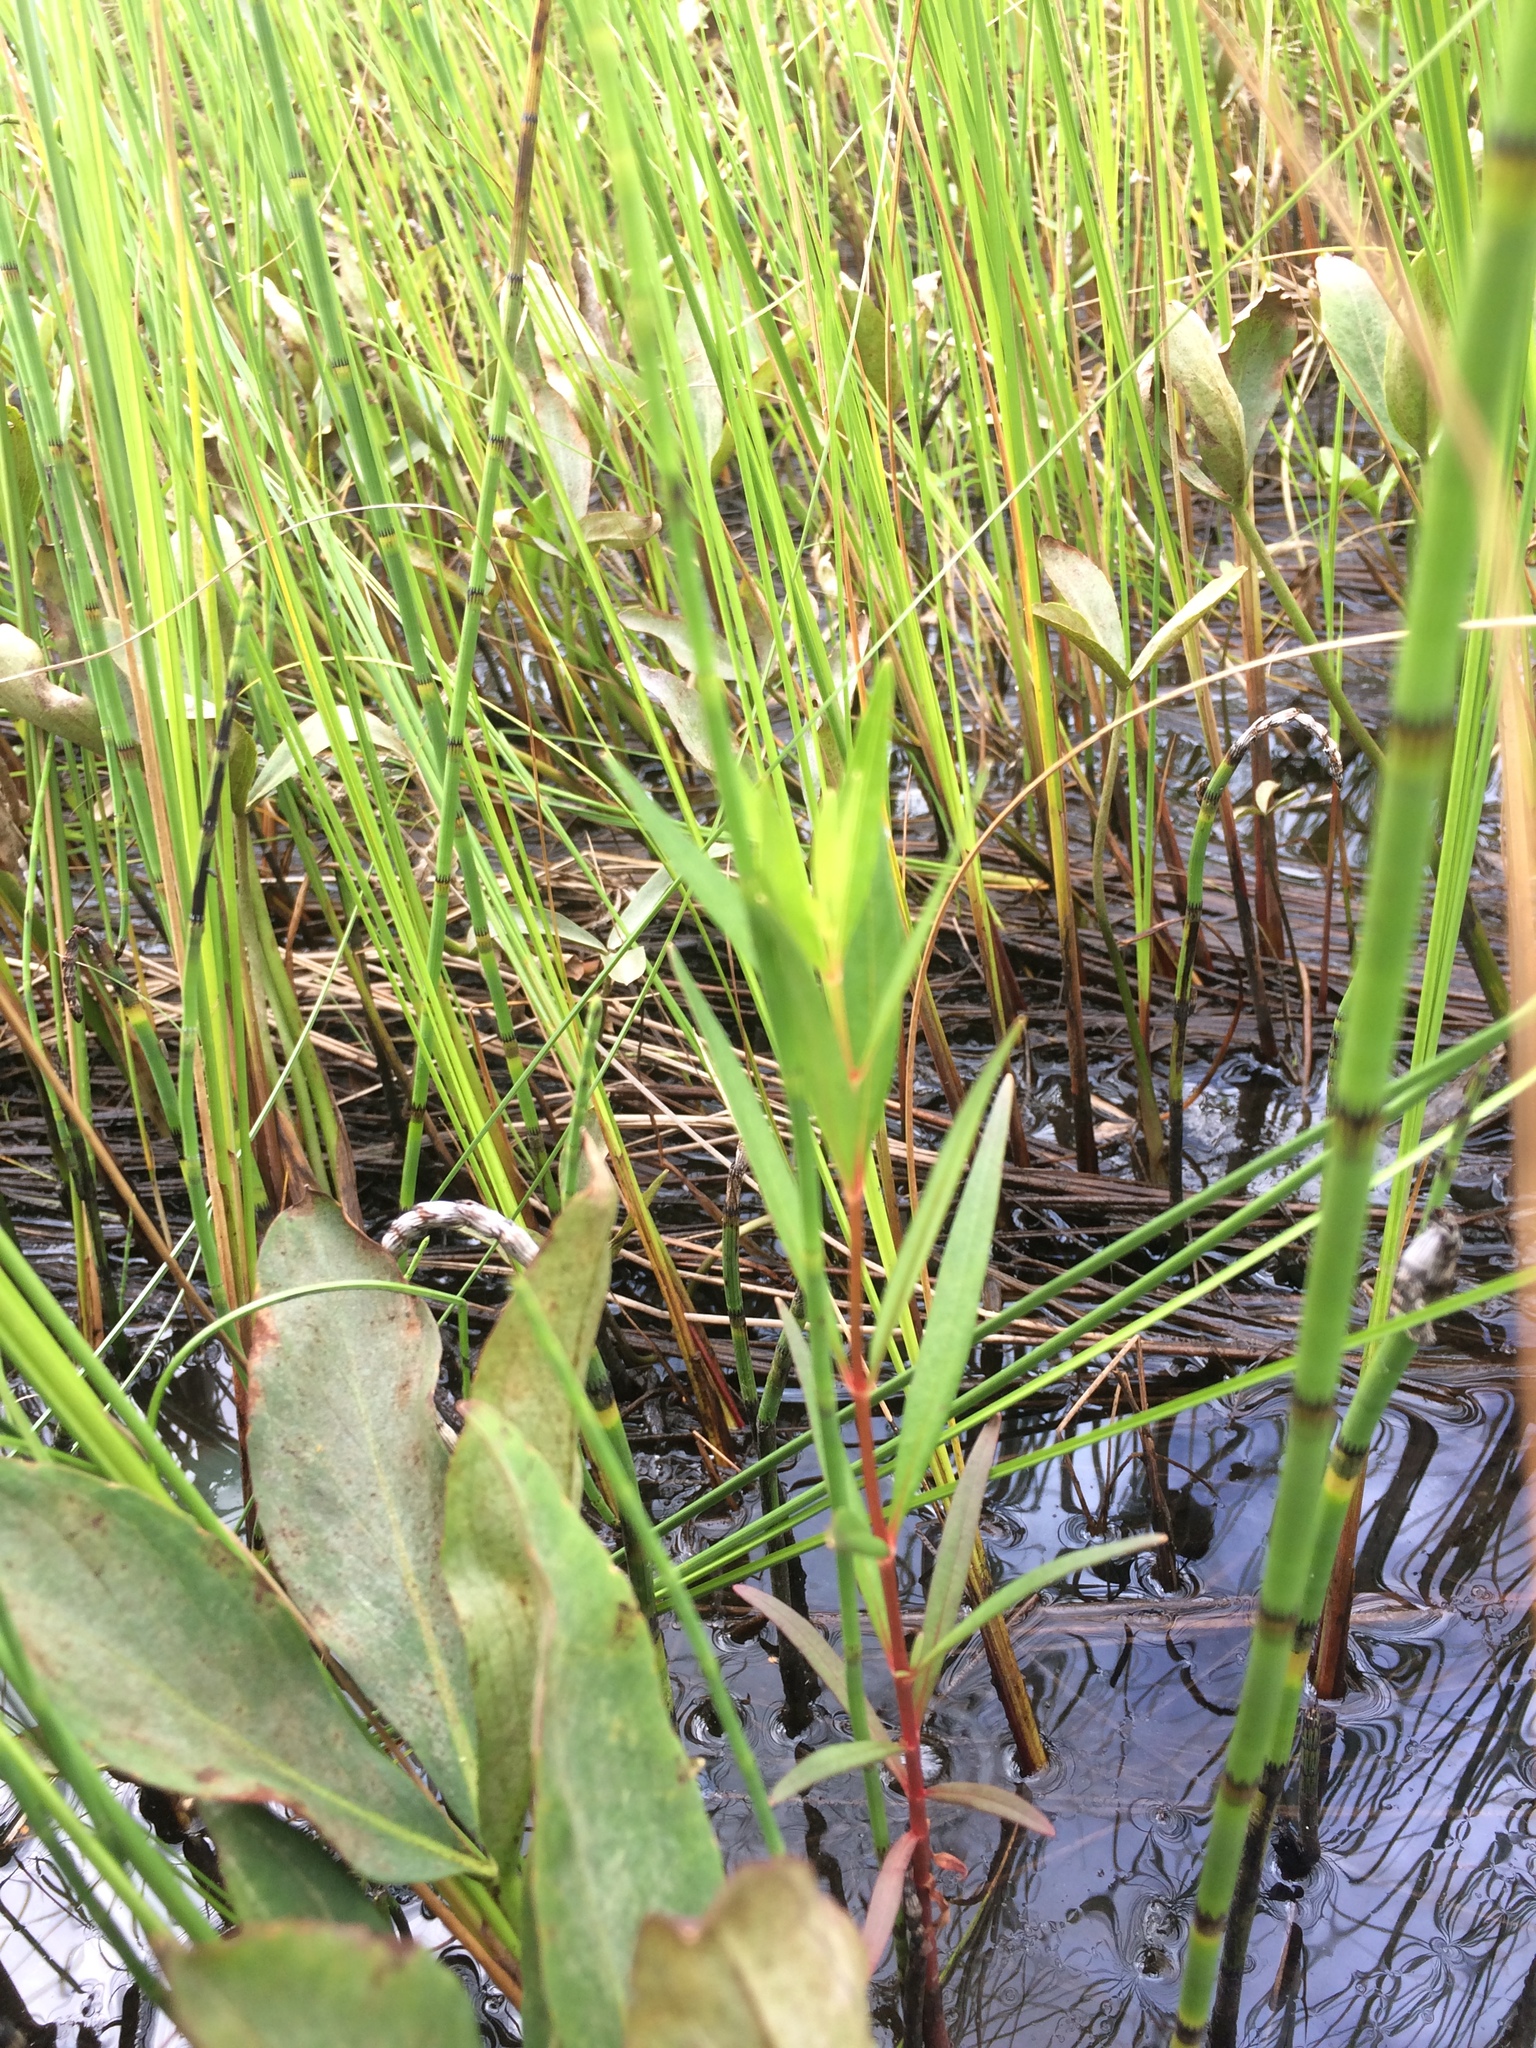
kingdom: Plantae
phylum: Tracheophyta
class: Magnoliopsida
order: Ericales
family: Primulaceae
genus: Lysimachia
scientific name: Lysimachia terrestris
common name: Lake loosestrife
